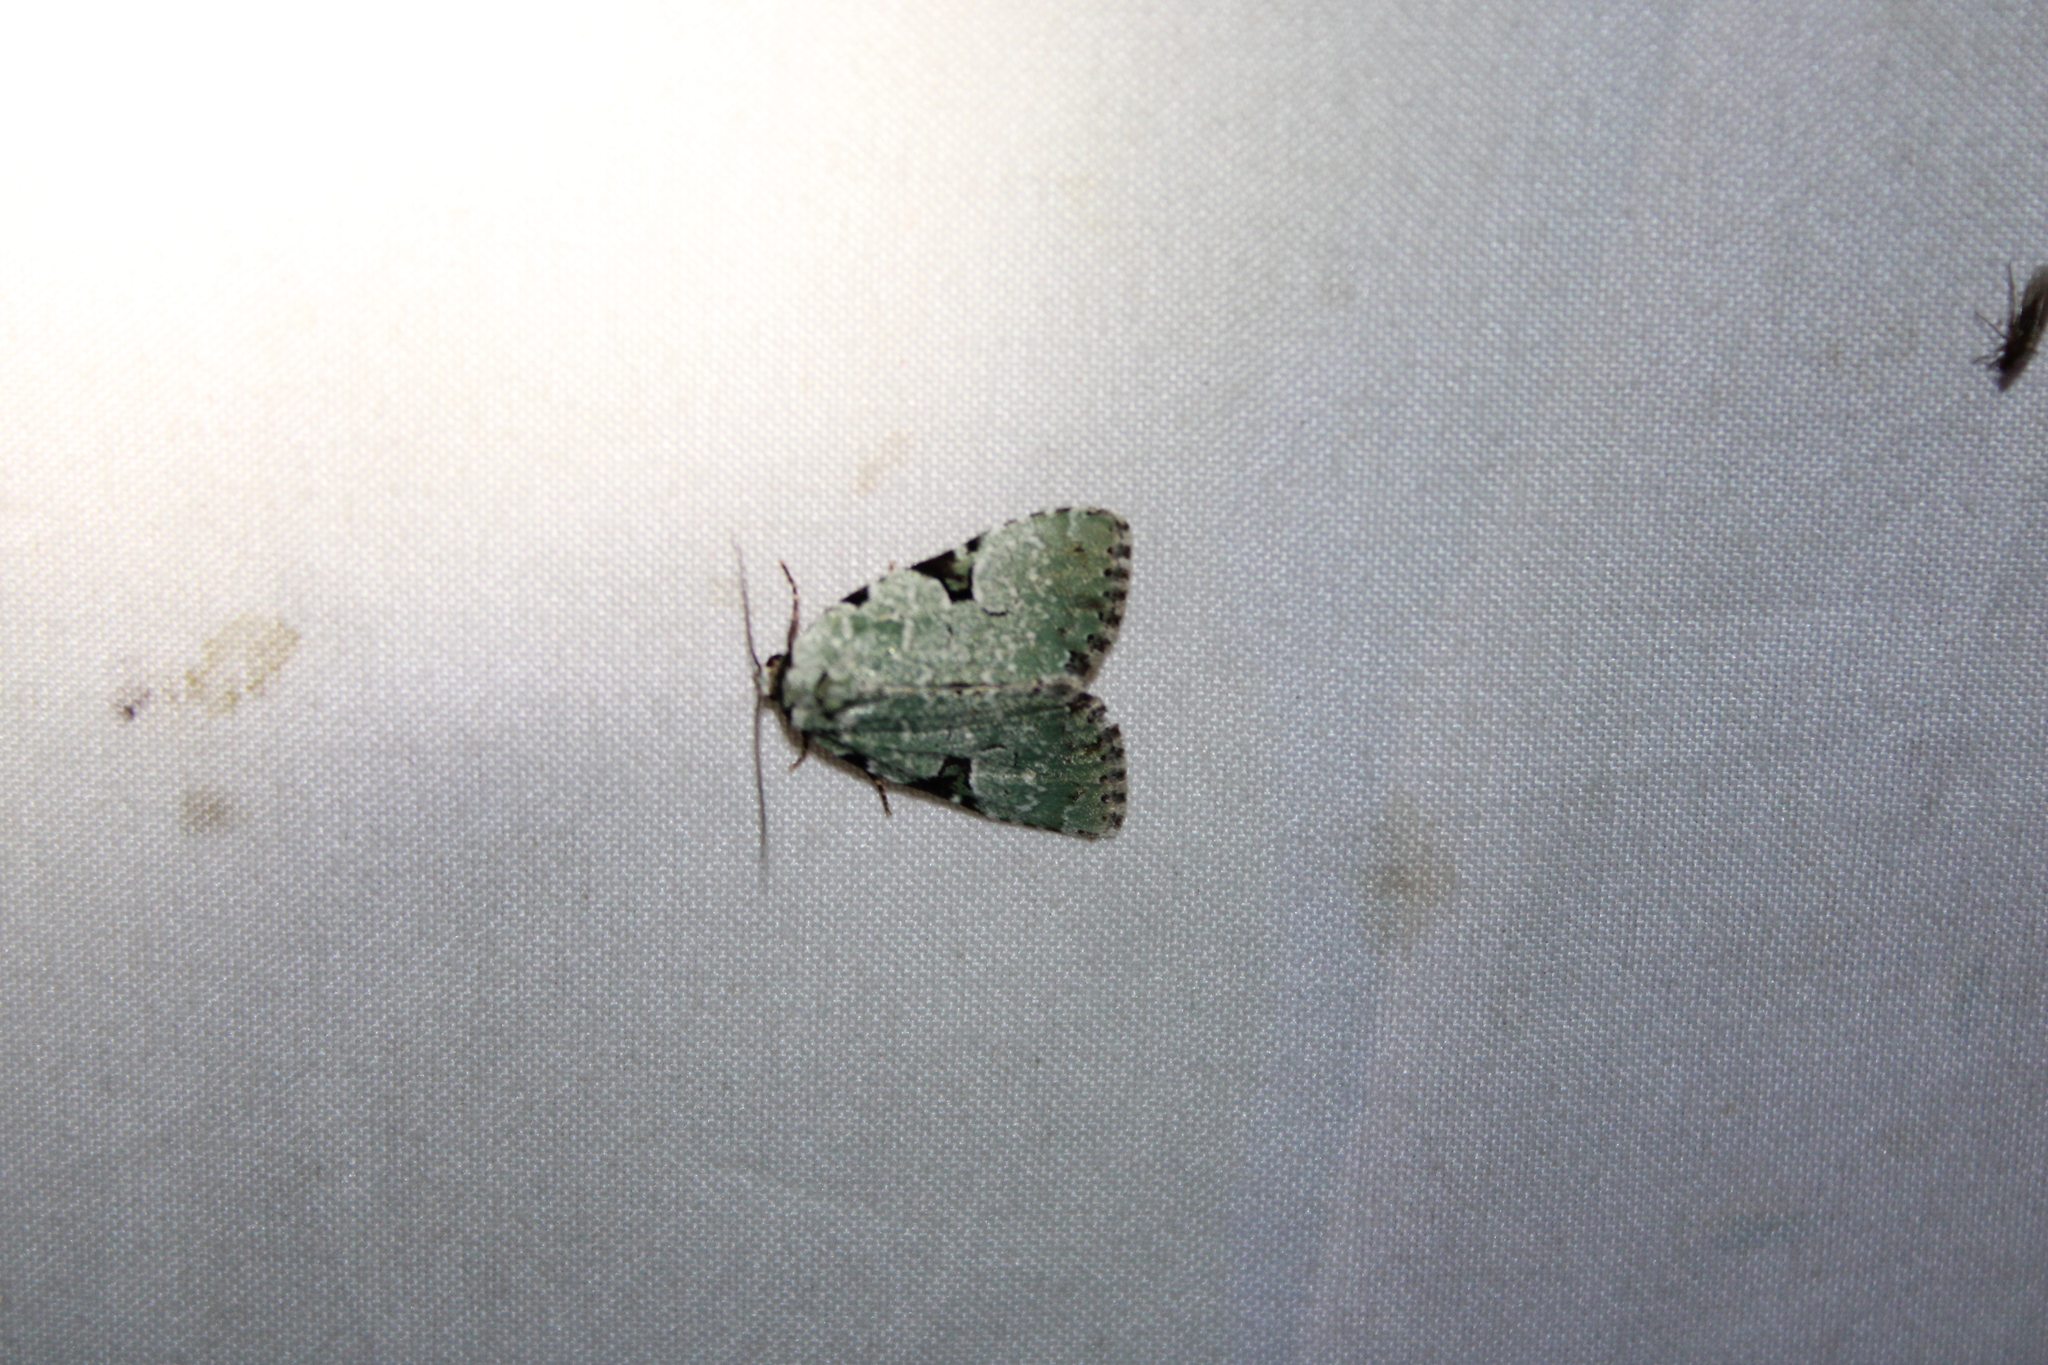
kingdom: Animalia
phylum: Arthropoda
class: Insecta
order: Lepidoptera
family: Noctuidae
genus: Leuconycta
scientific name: Leuconycta diphteroides
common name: Green leuconycta moth
